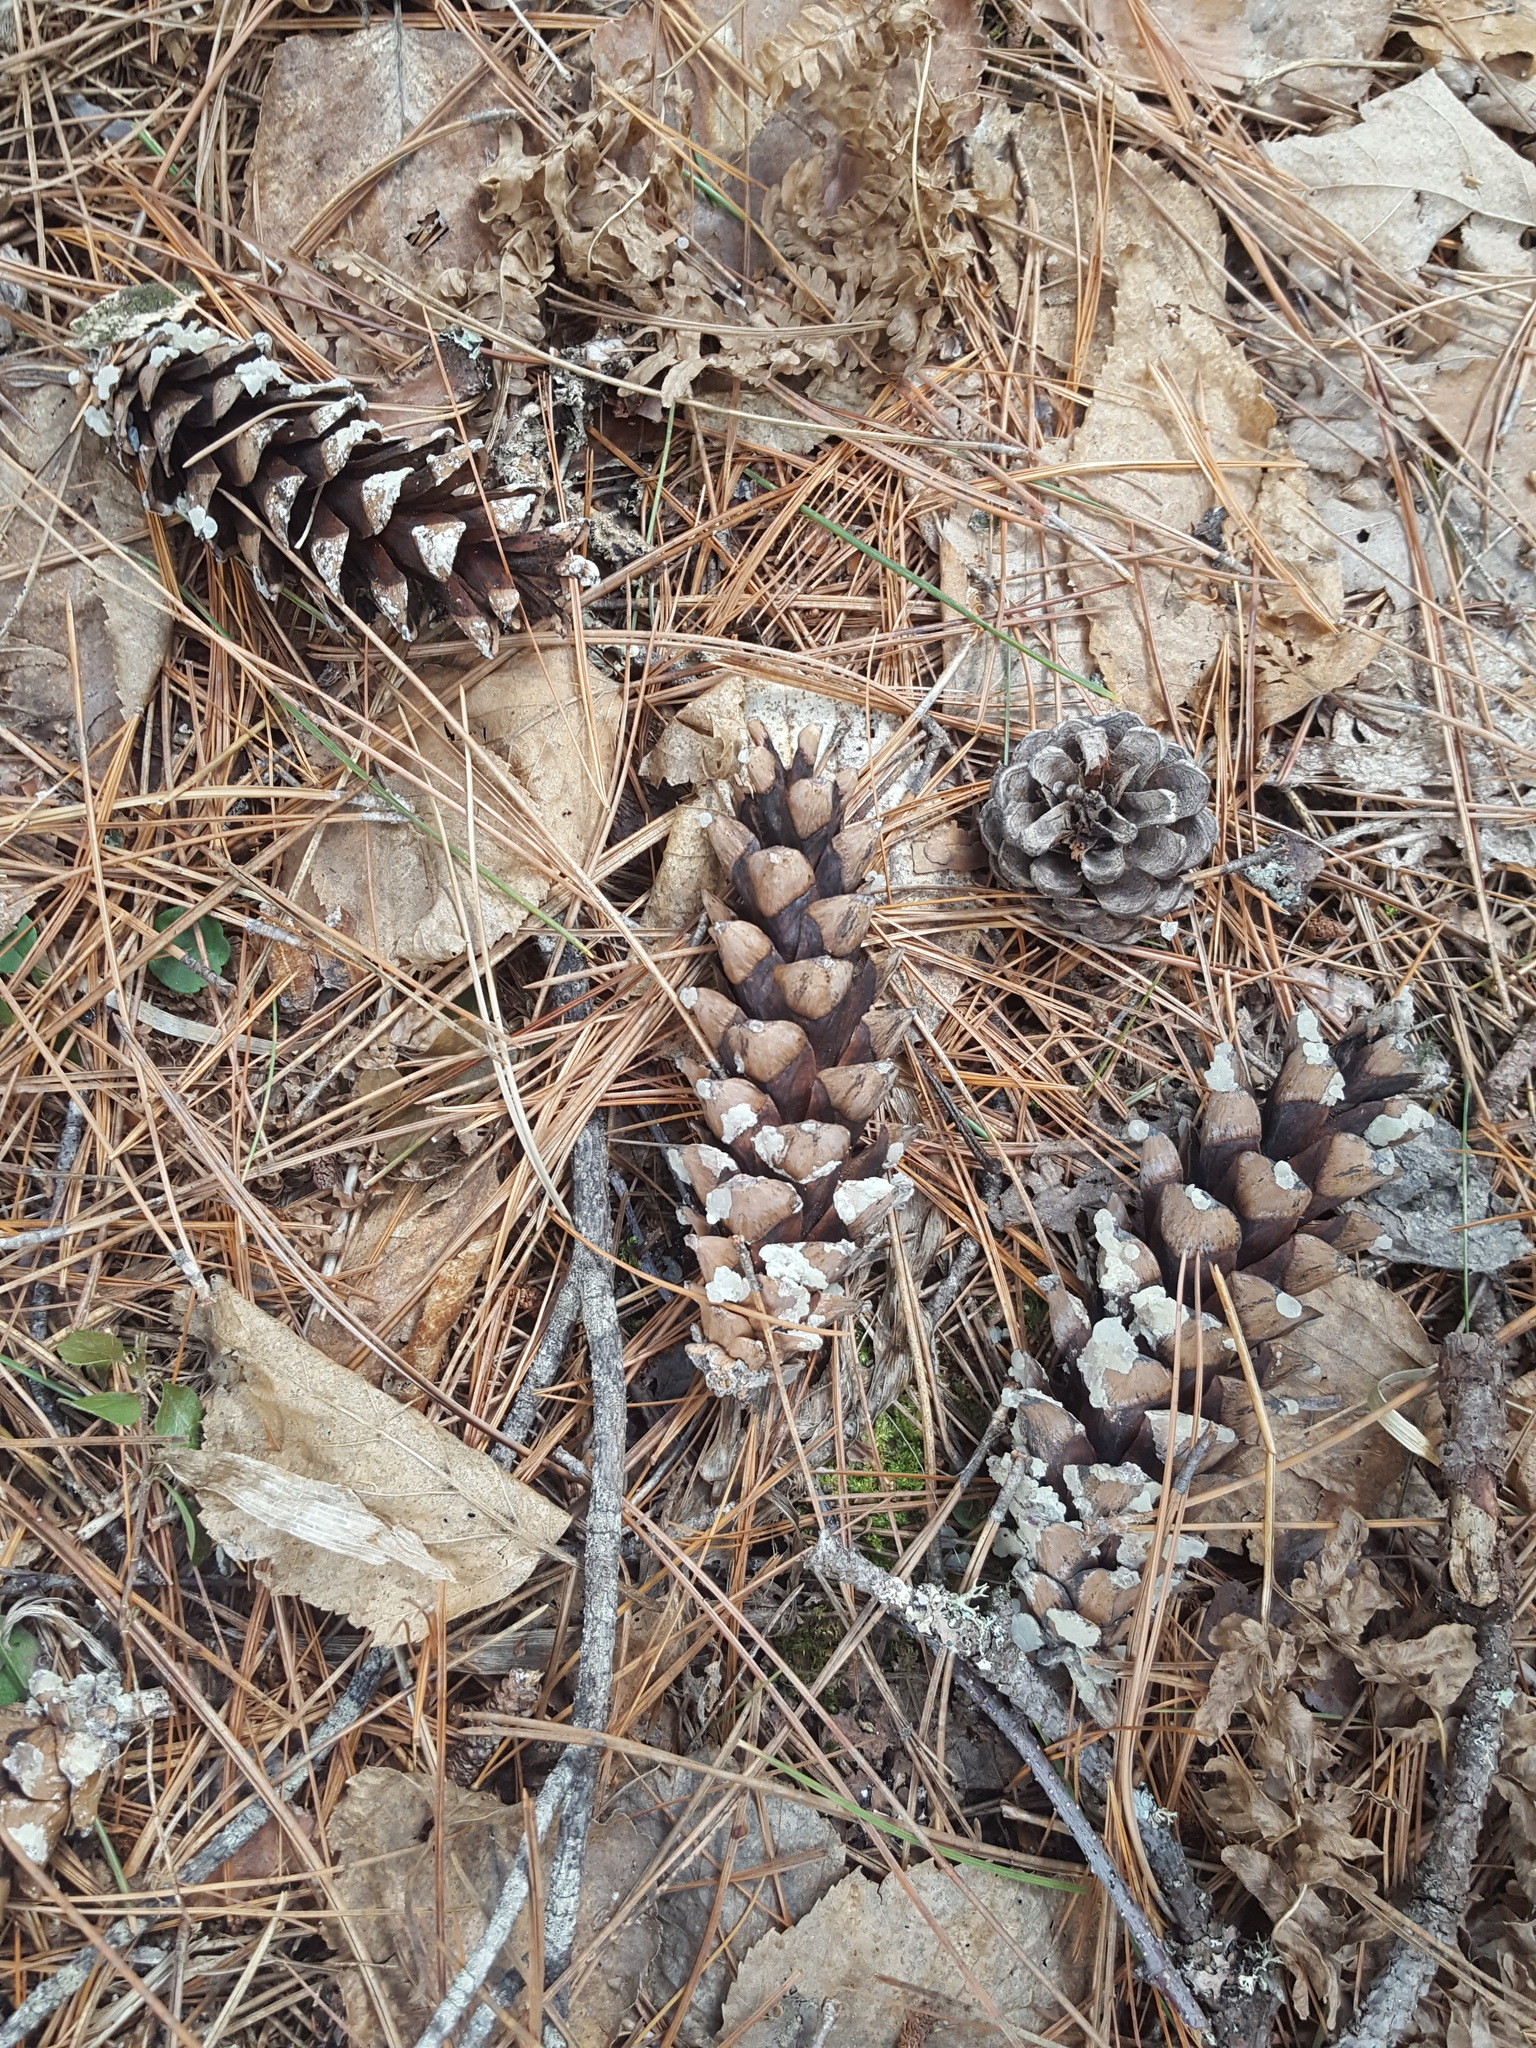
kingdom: Plantae
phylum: Tracheophyta
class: Pinopsida
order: Pinales
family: Pinaceae
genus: Pinus
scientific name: Pinus strobus
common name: Weymouth pine
